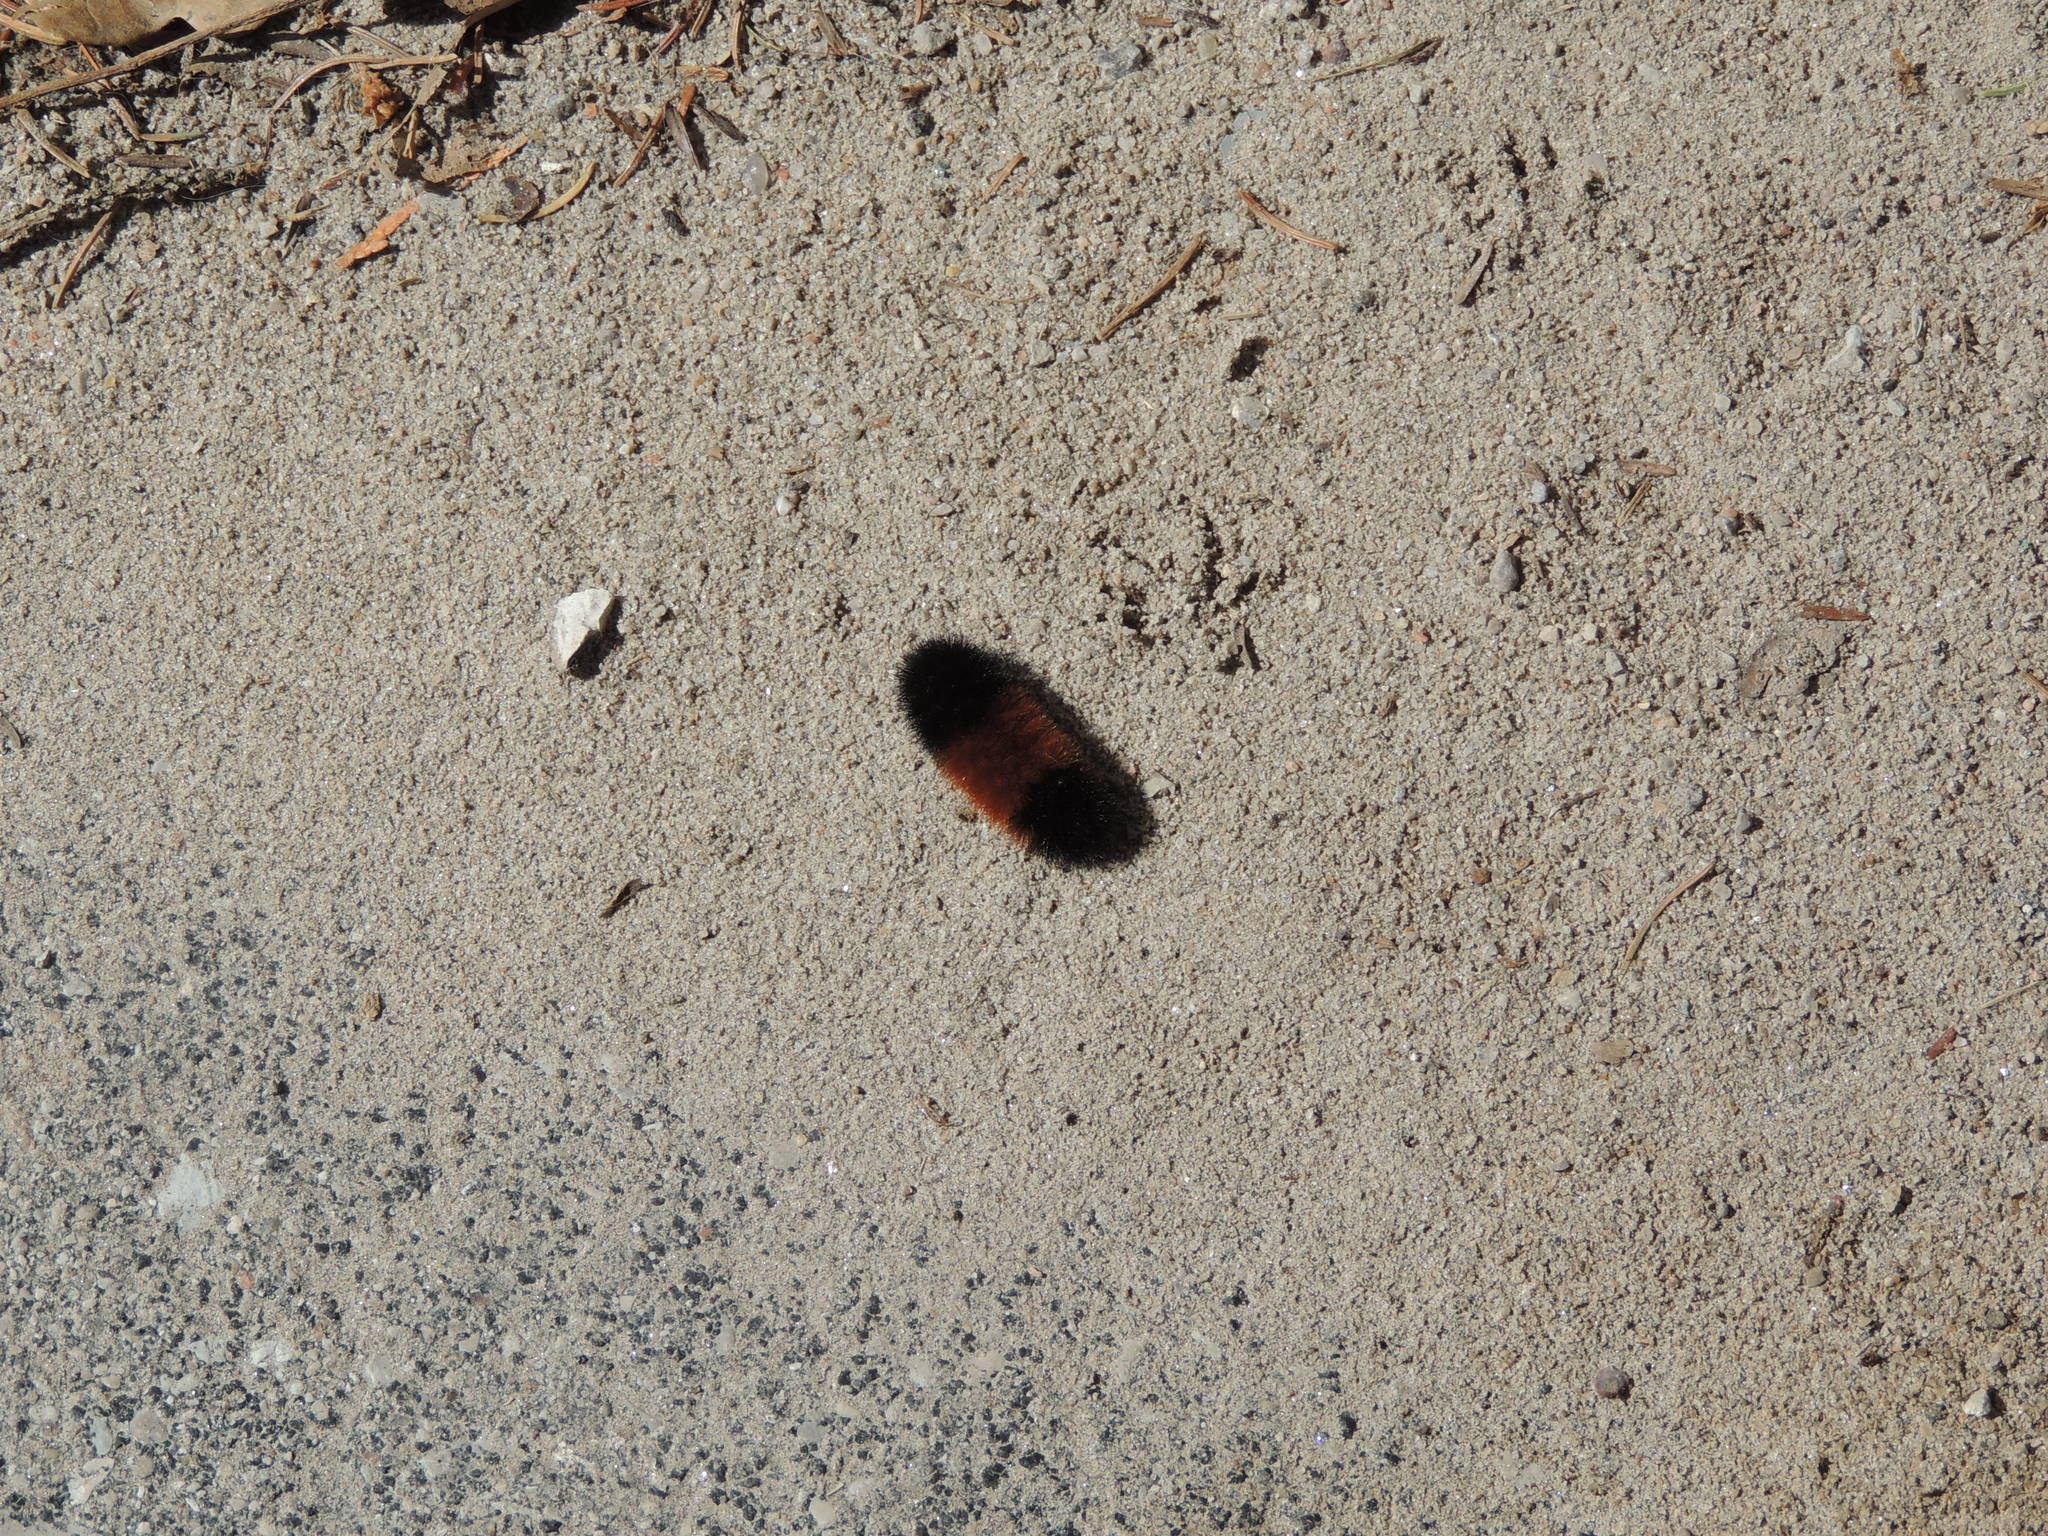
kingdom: Animalia
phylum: Arthropoda
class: Insecta
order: Lepidoptera
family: Erebidae
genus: Pyrrharctia
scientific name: Pyrrharctia isabella
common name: Isabella tiger moth
